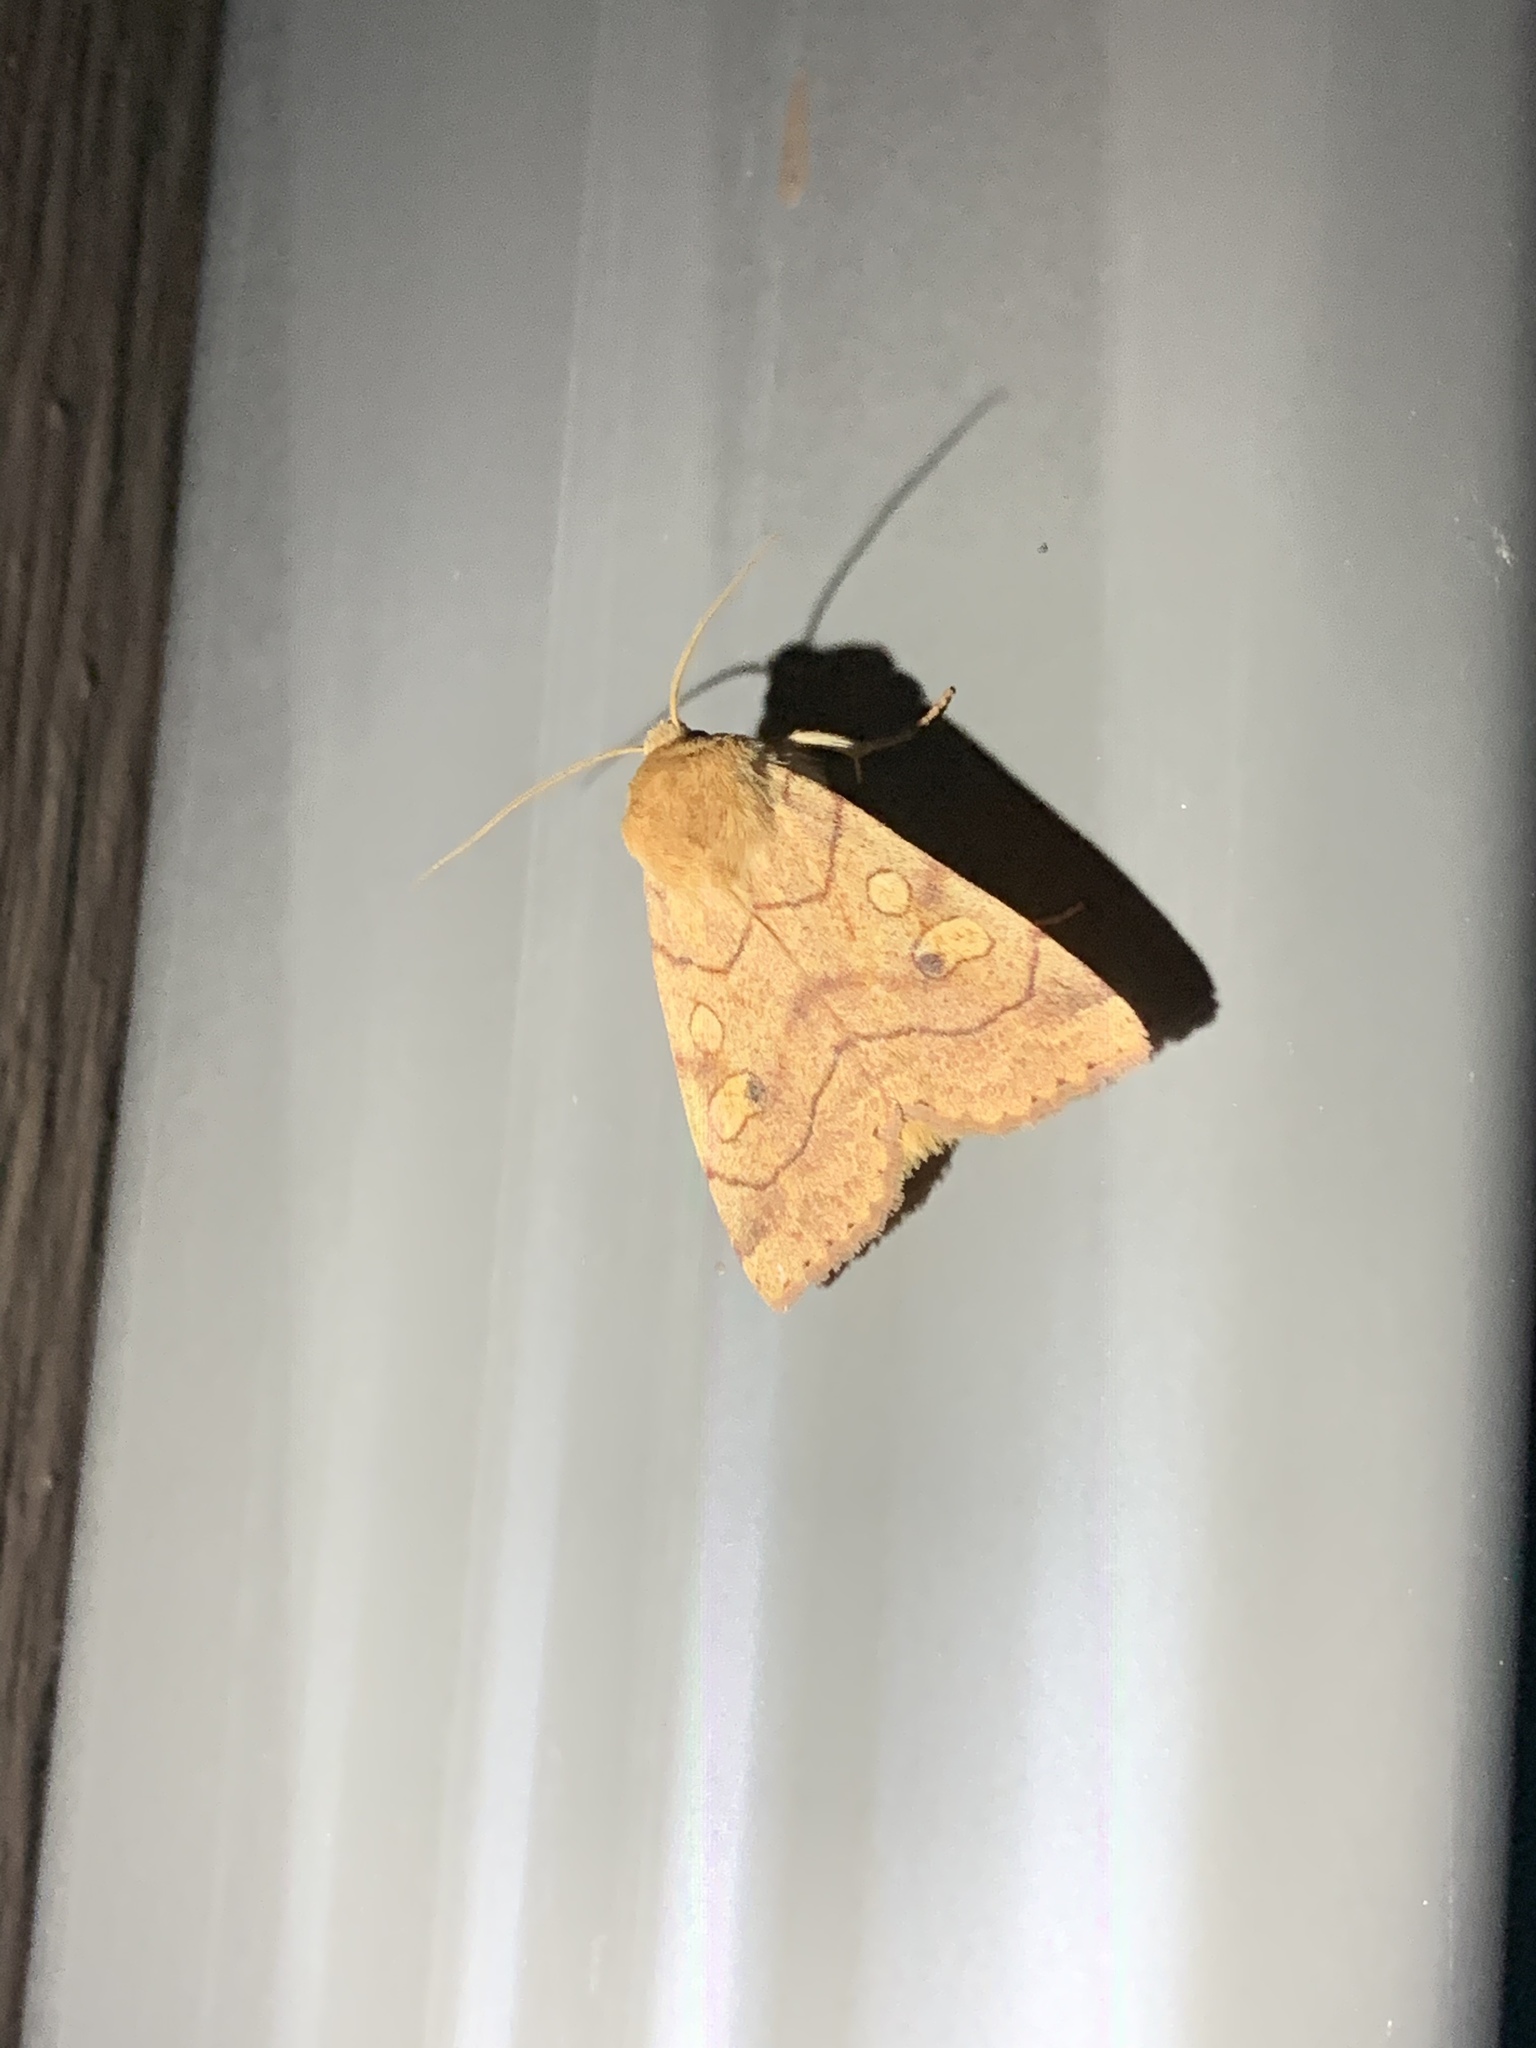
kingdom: Animalia
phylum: Arthropoda
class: Insecta
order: Lepidoptera
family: Noctuidae
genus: Enargia
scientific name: Enargia decolor
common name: Aspen twoleaf tier moth
